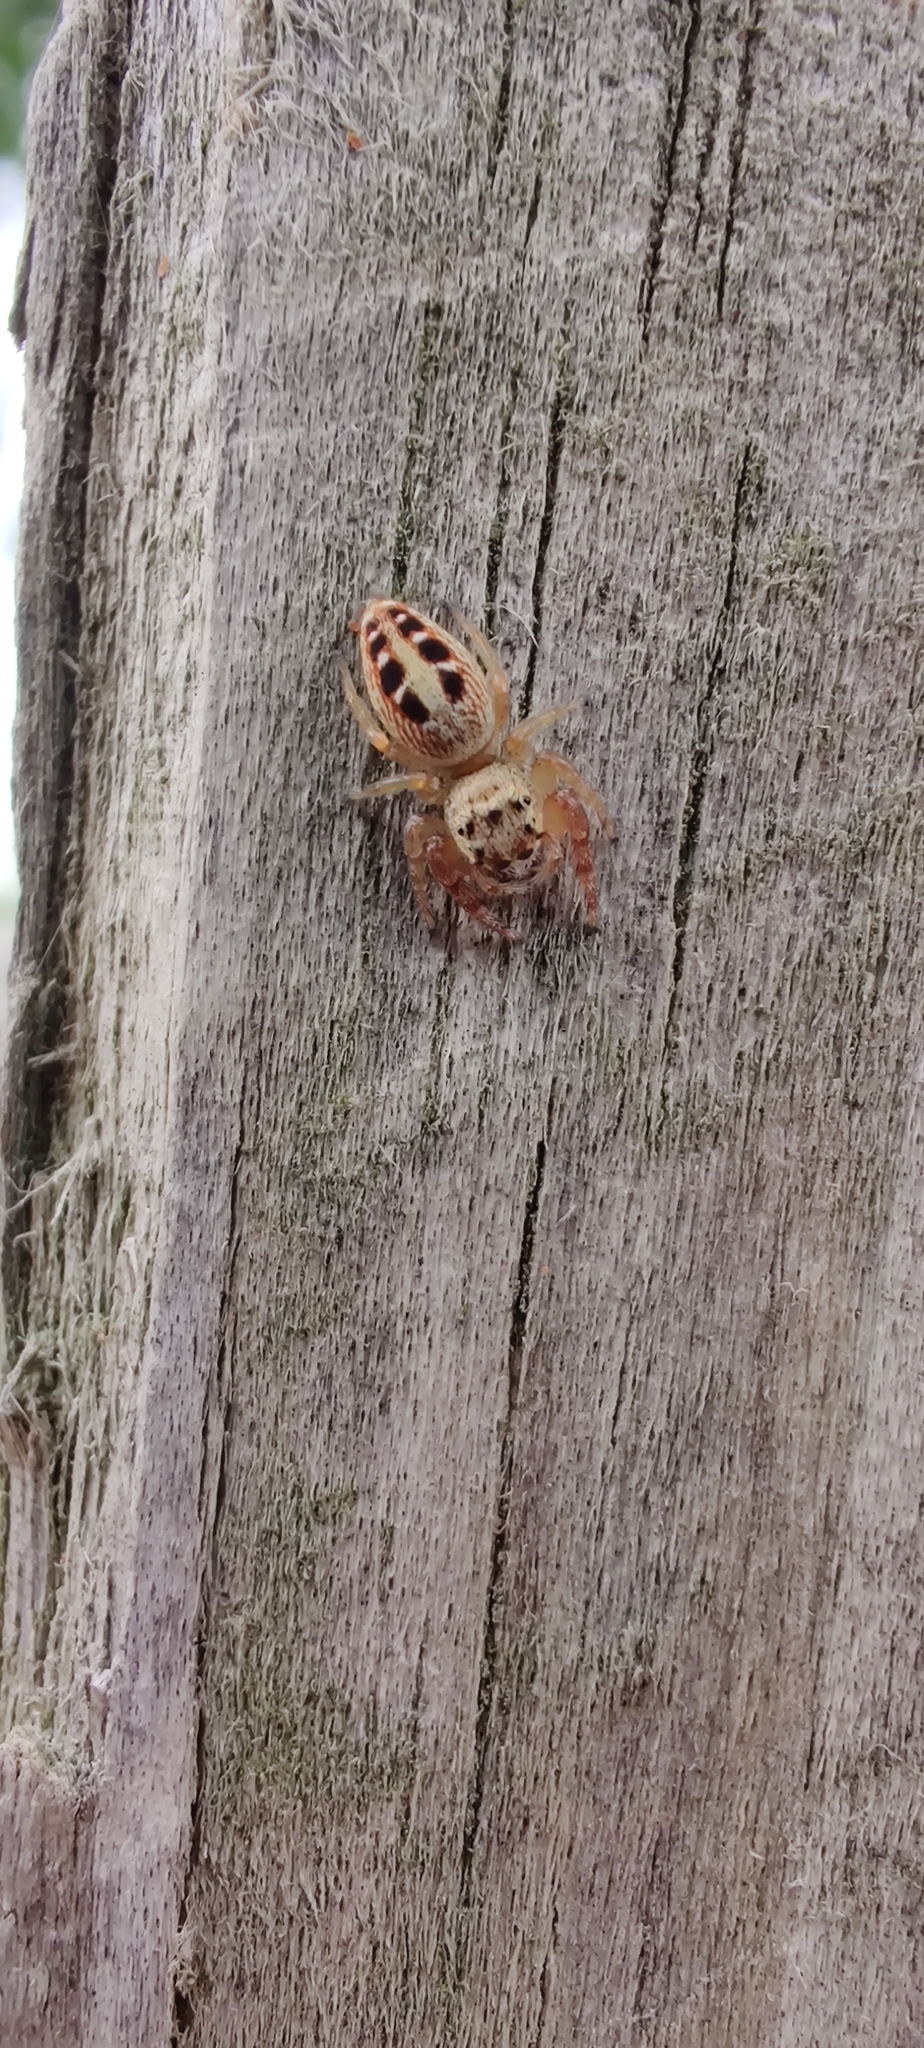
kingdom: Animalia
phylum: Arthropoda
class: Arachnida
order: Araneae
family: Salticidae
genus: Opisthoncus
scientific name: Opisthoncus sexmaculatus
